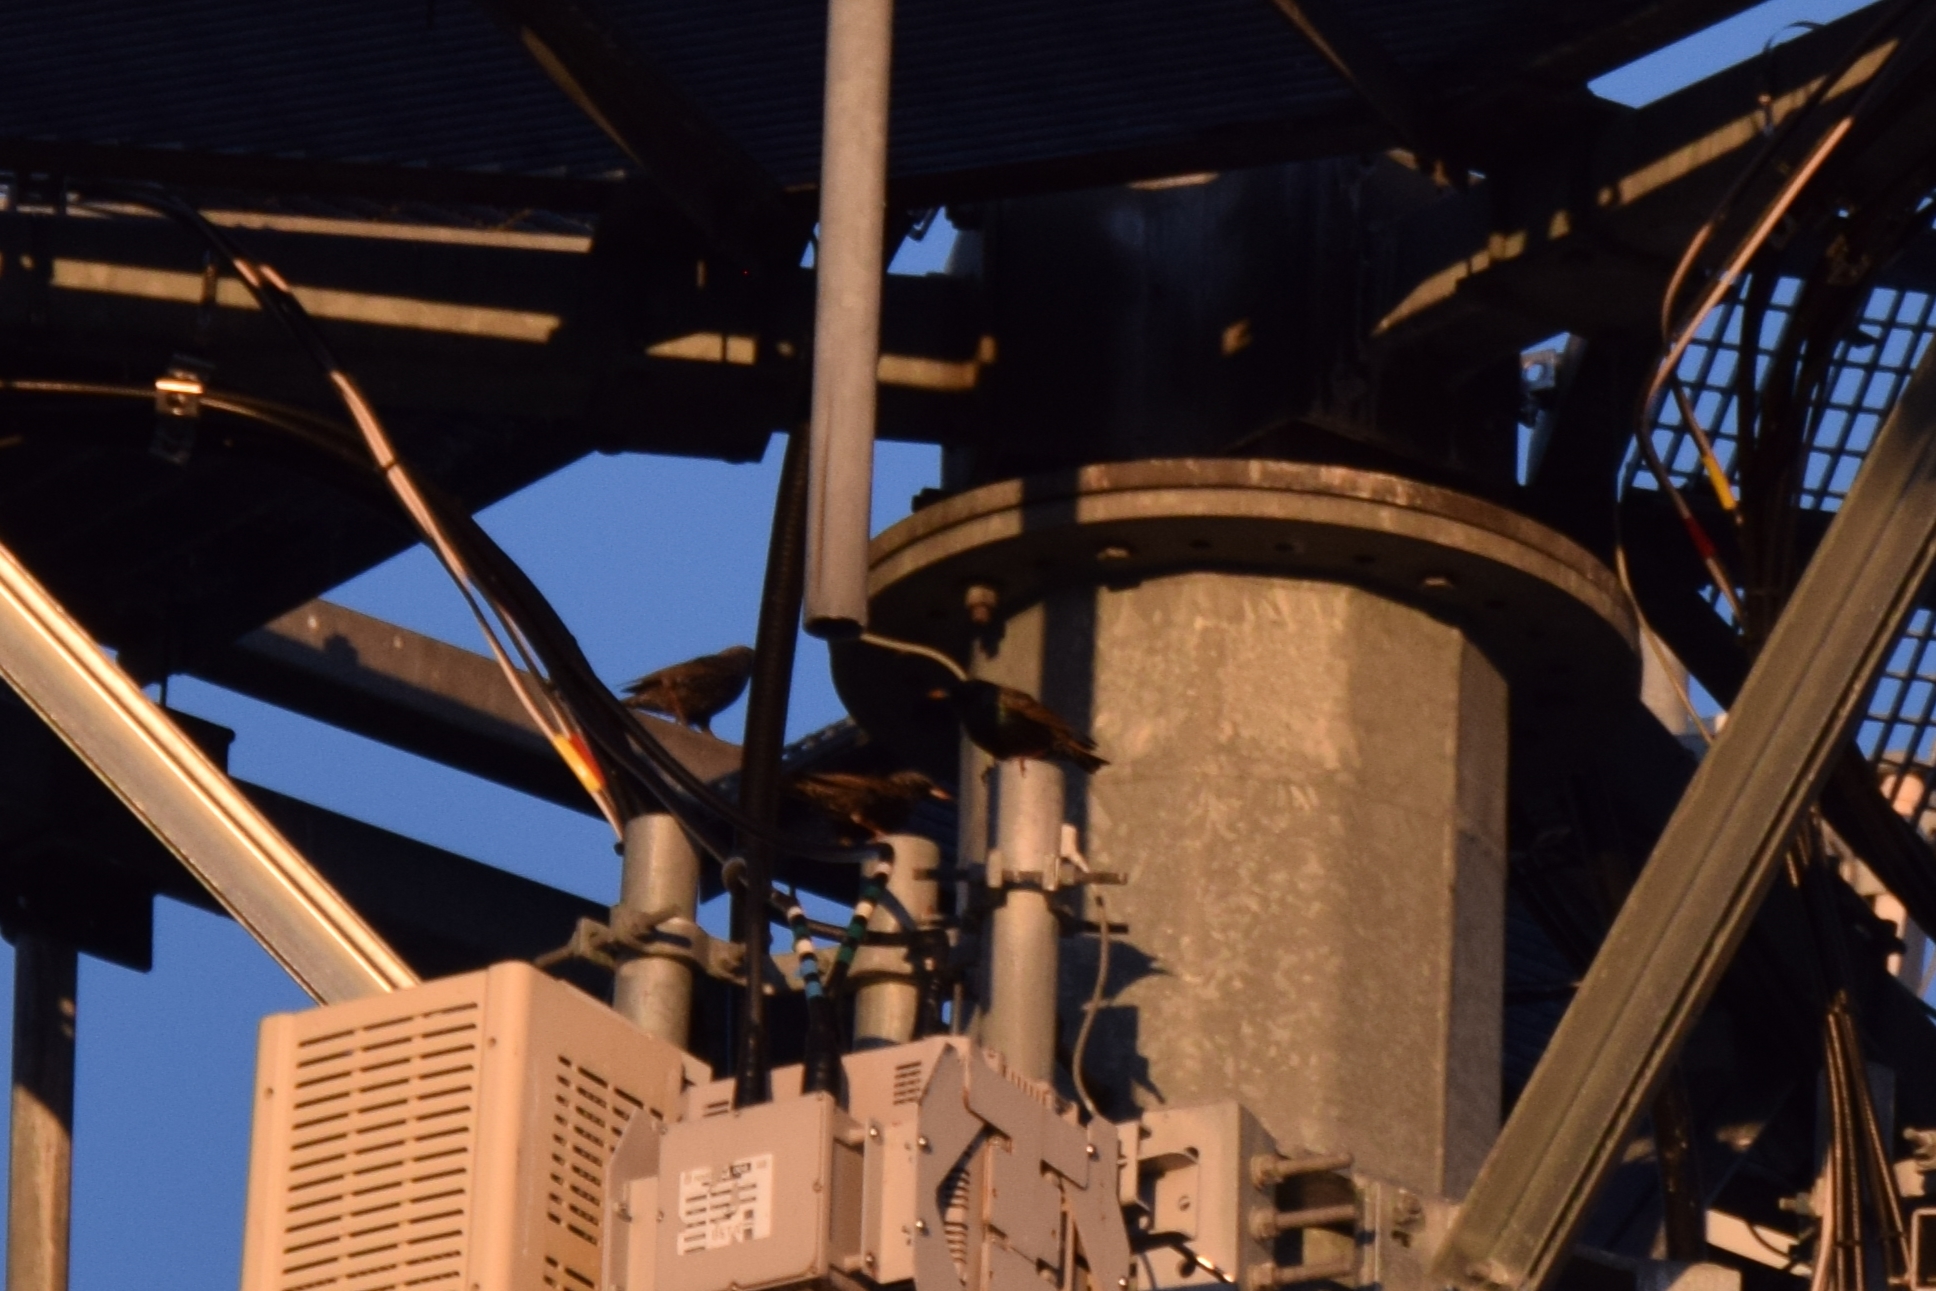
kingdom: Animalia
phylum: Chordata
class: Aves
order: Passeriformes
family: Sturnidae
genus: Sturnus
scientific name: Sturnus vulgaris
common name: Common starling
